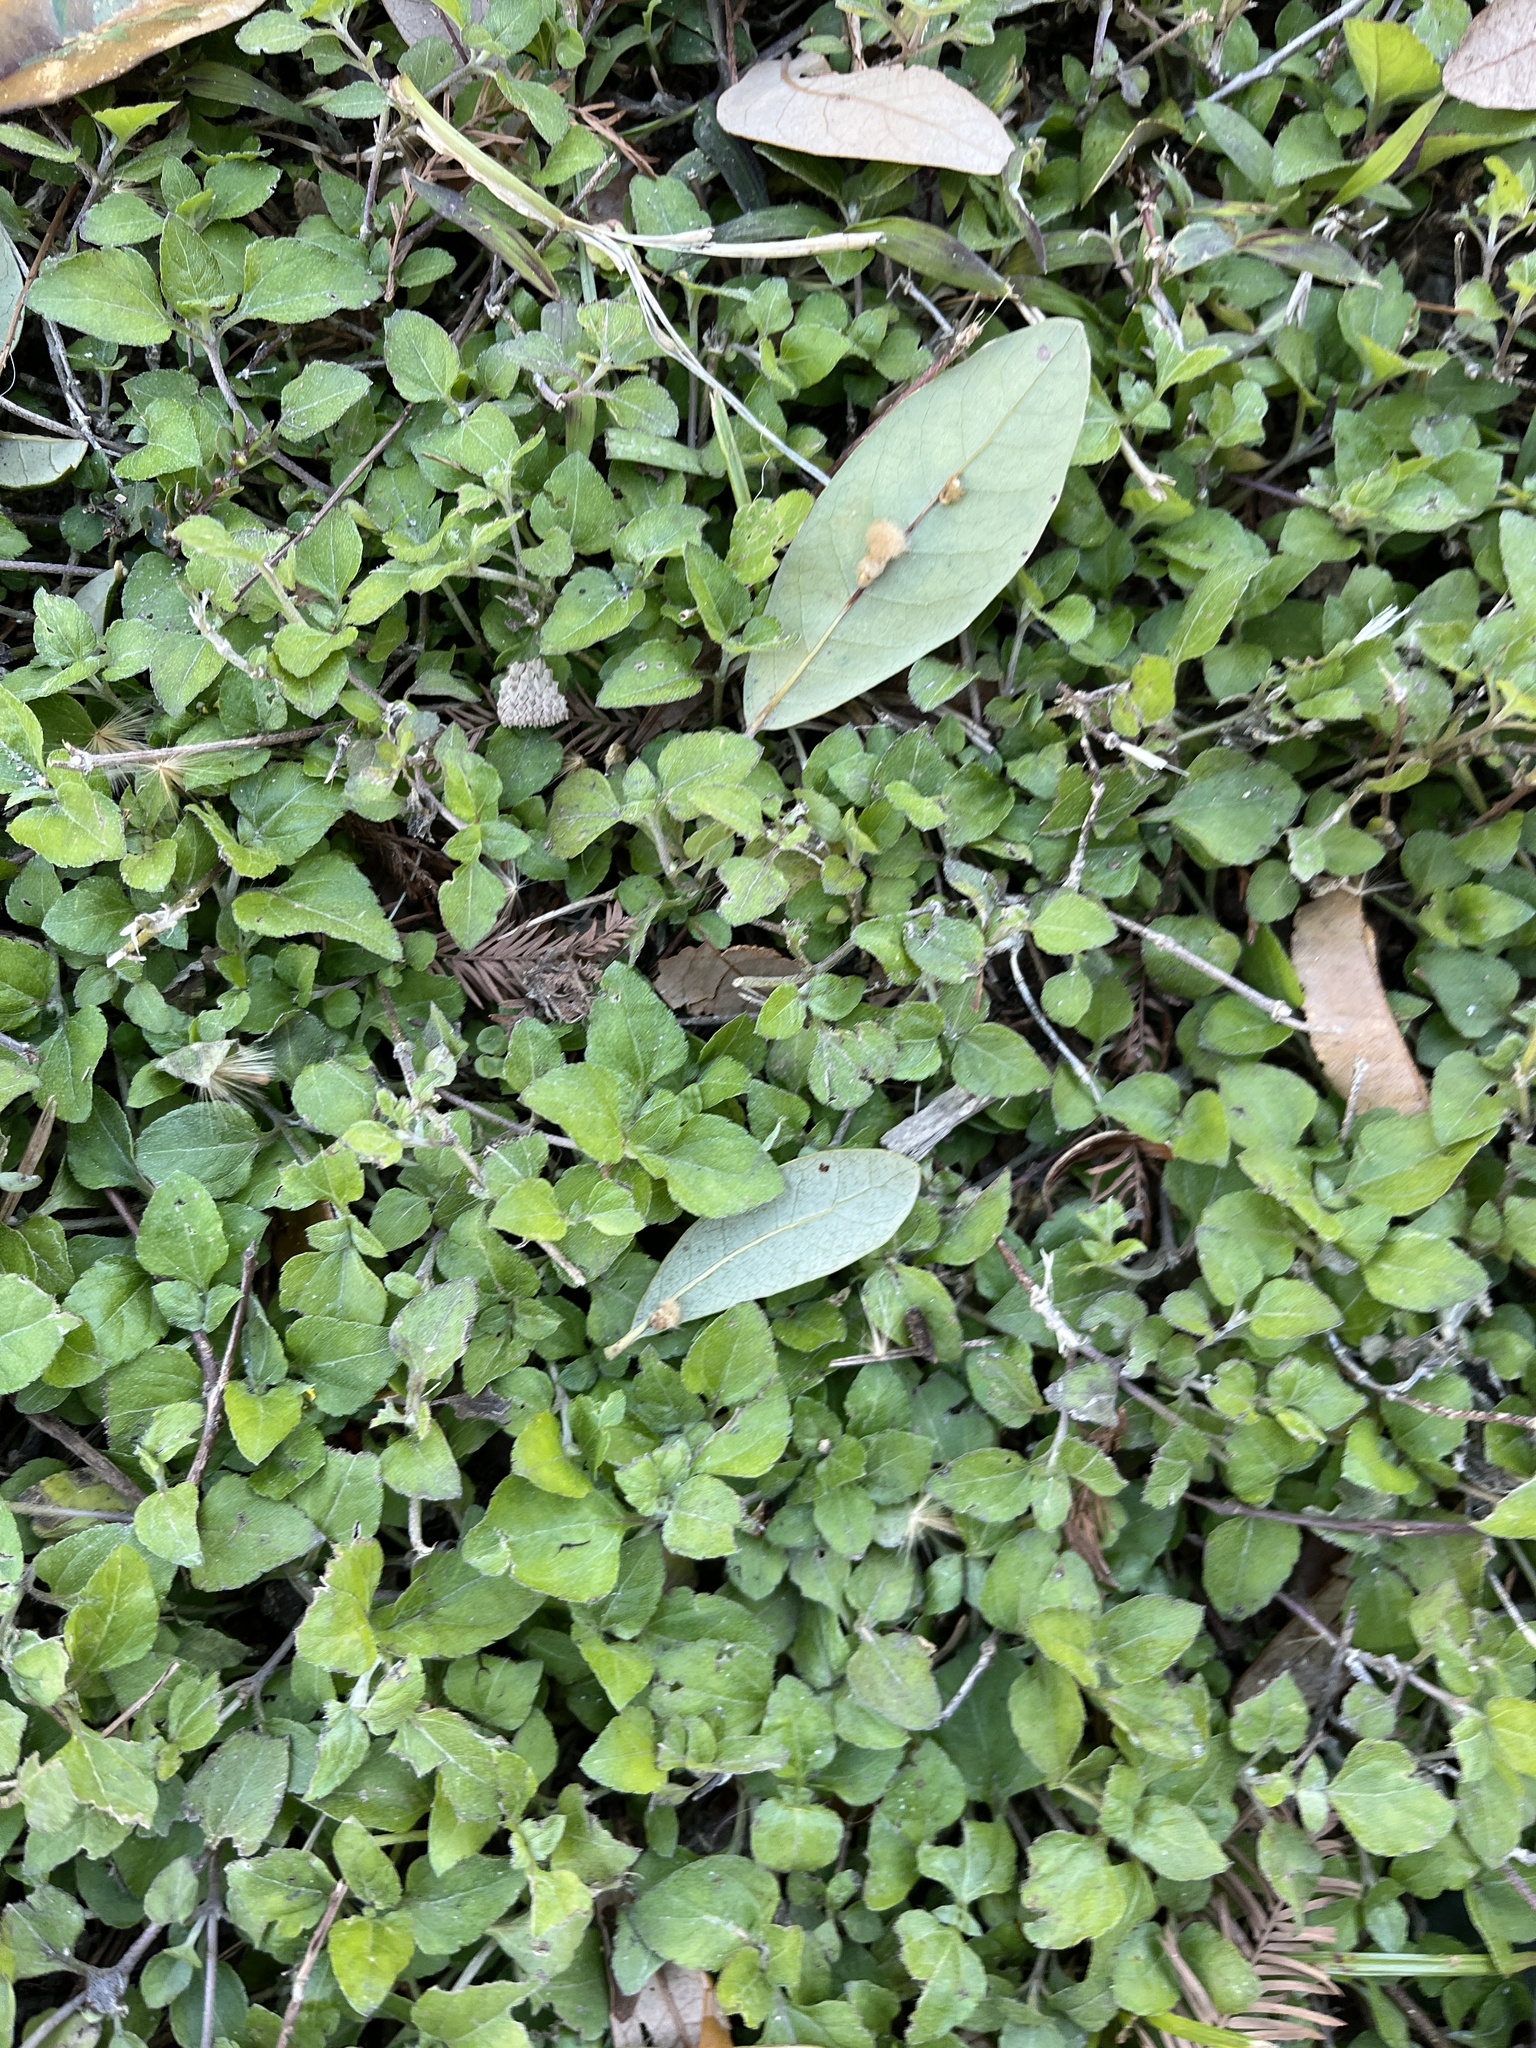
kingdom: Plantae
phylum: Tracheophyta
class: Magnoliopsida
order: Asterales
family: Asteraceae
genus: Calyptocarpus
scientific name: Calyptocarpus vialis
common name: Straggler daisy
